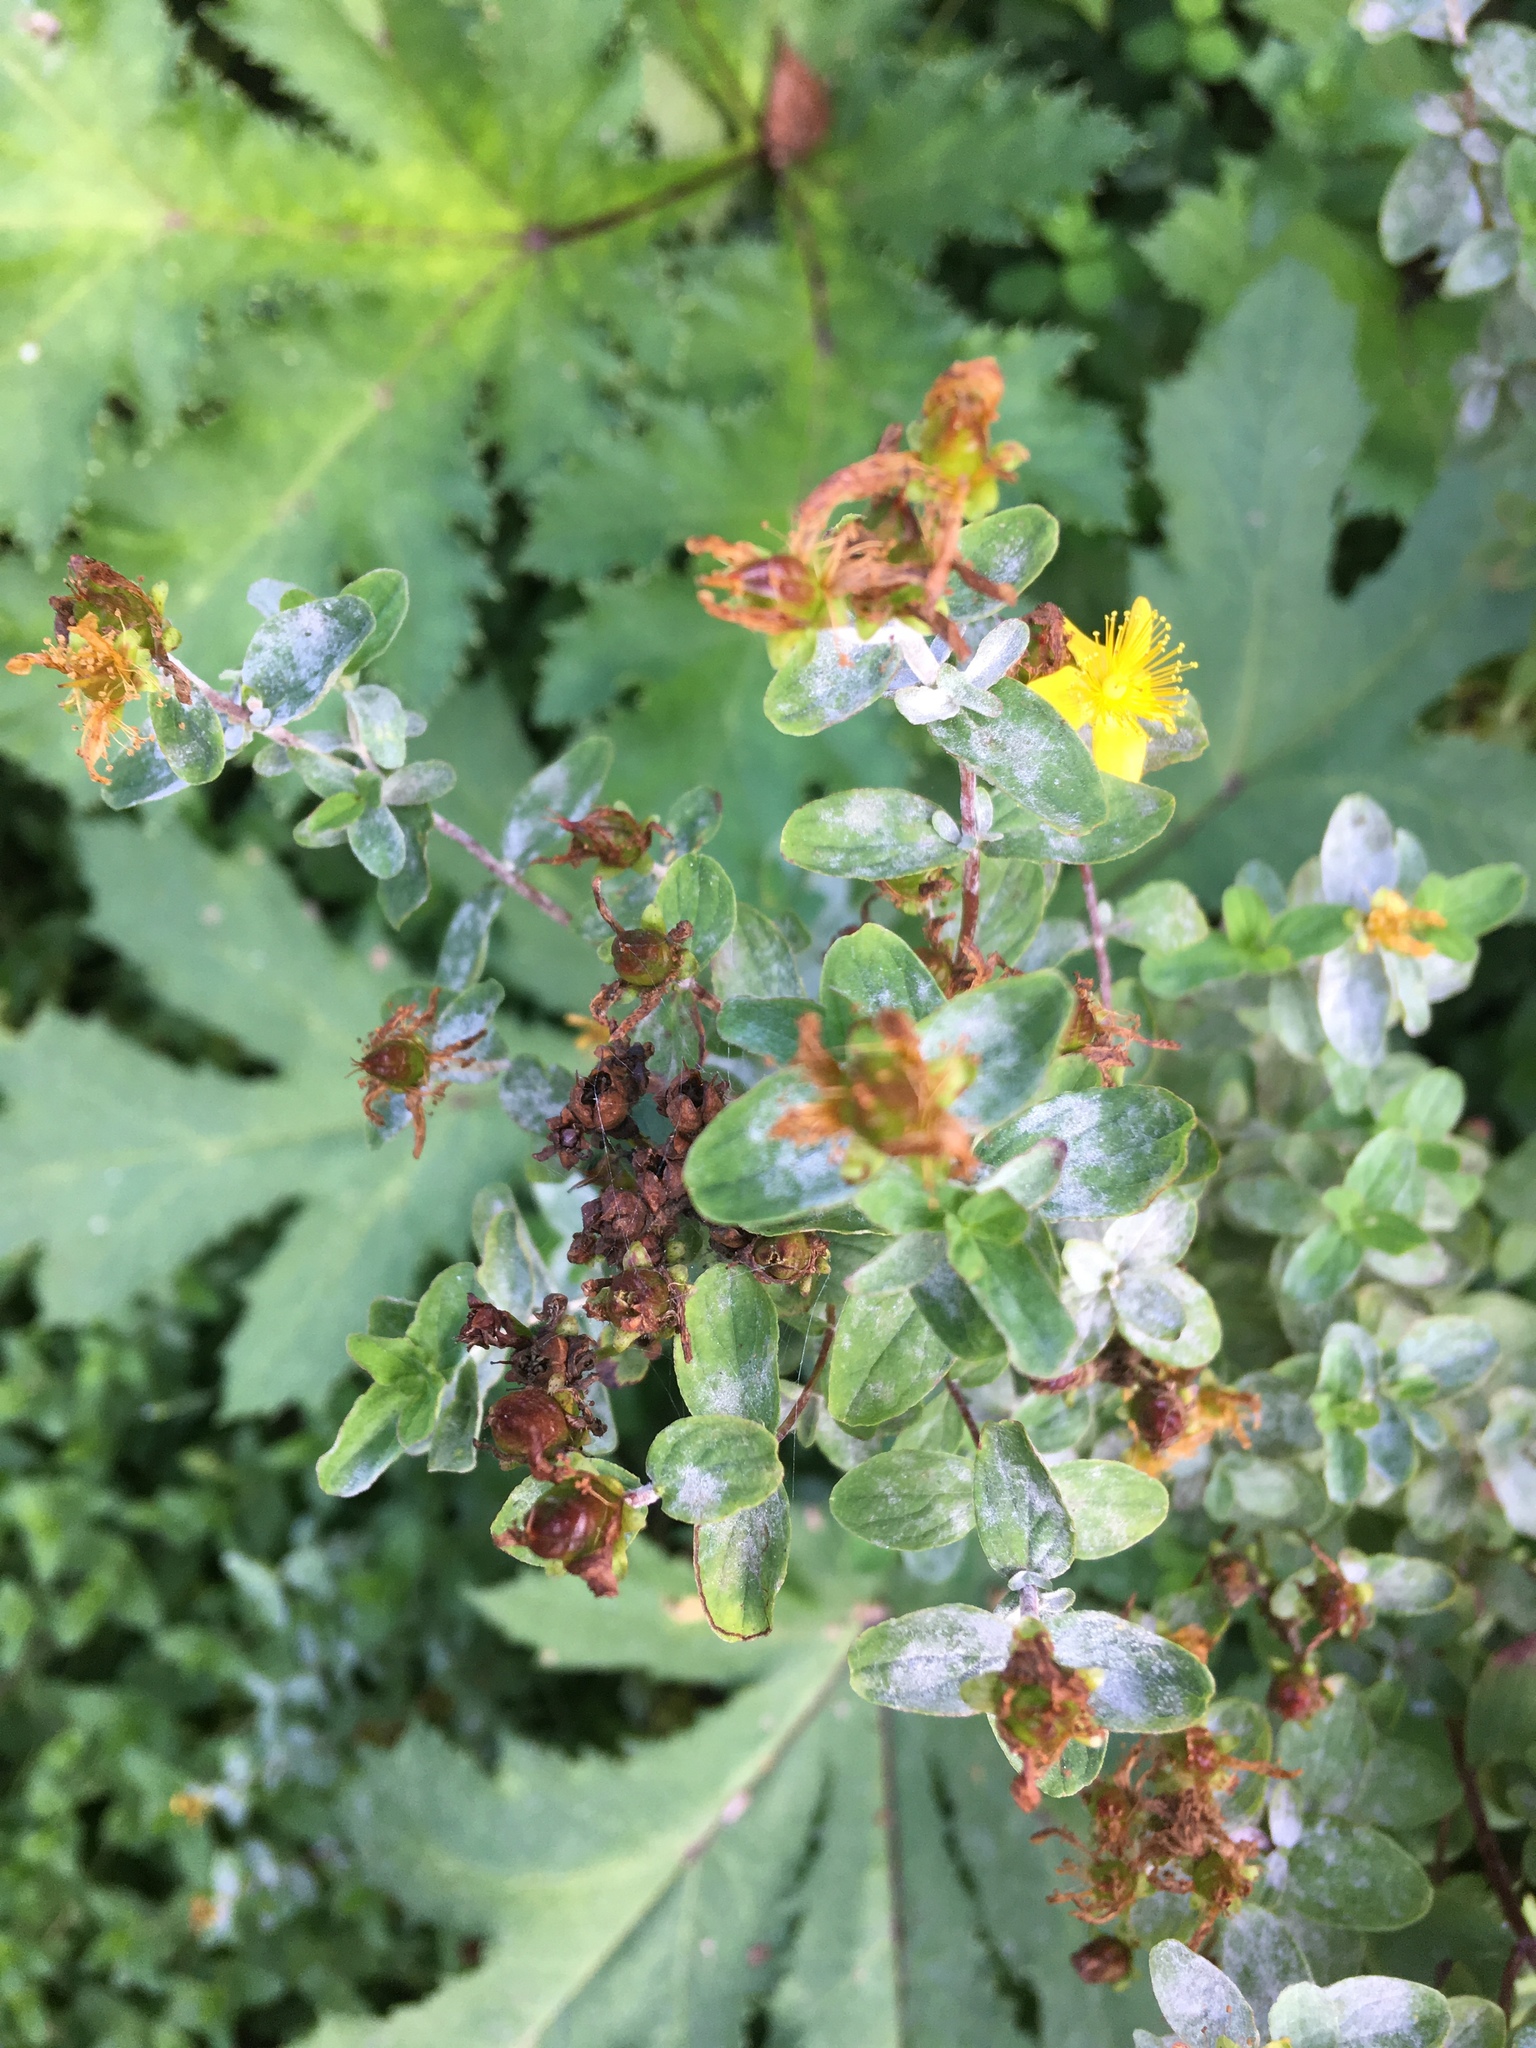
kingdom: Plantae
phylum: Tracheophyta
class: Magnoliopsida
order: Malpighiales
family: Hypericaceae
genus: Hypericum
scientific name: Hypericum maculatum
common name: Imperforate st. john's-wort
